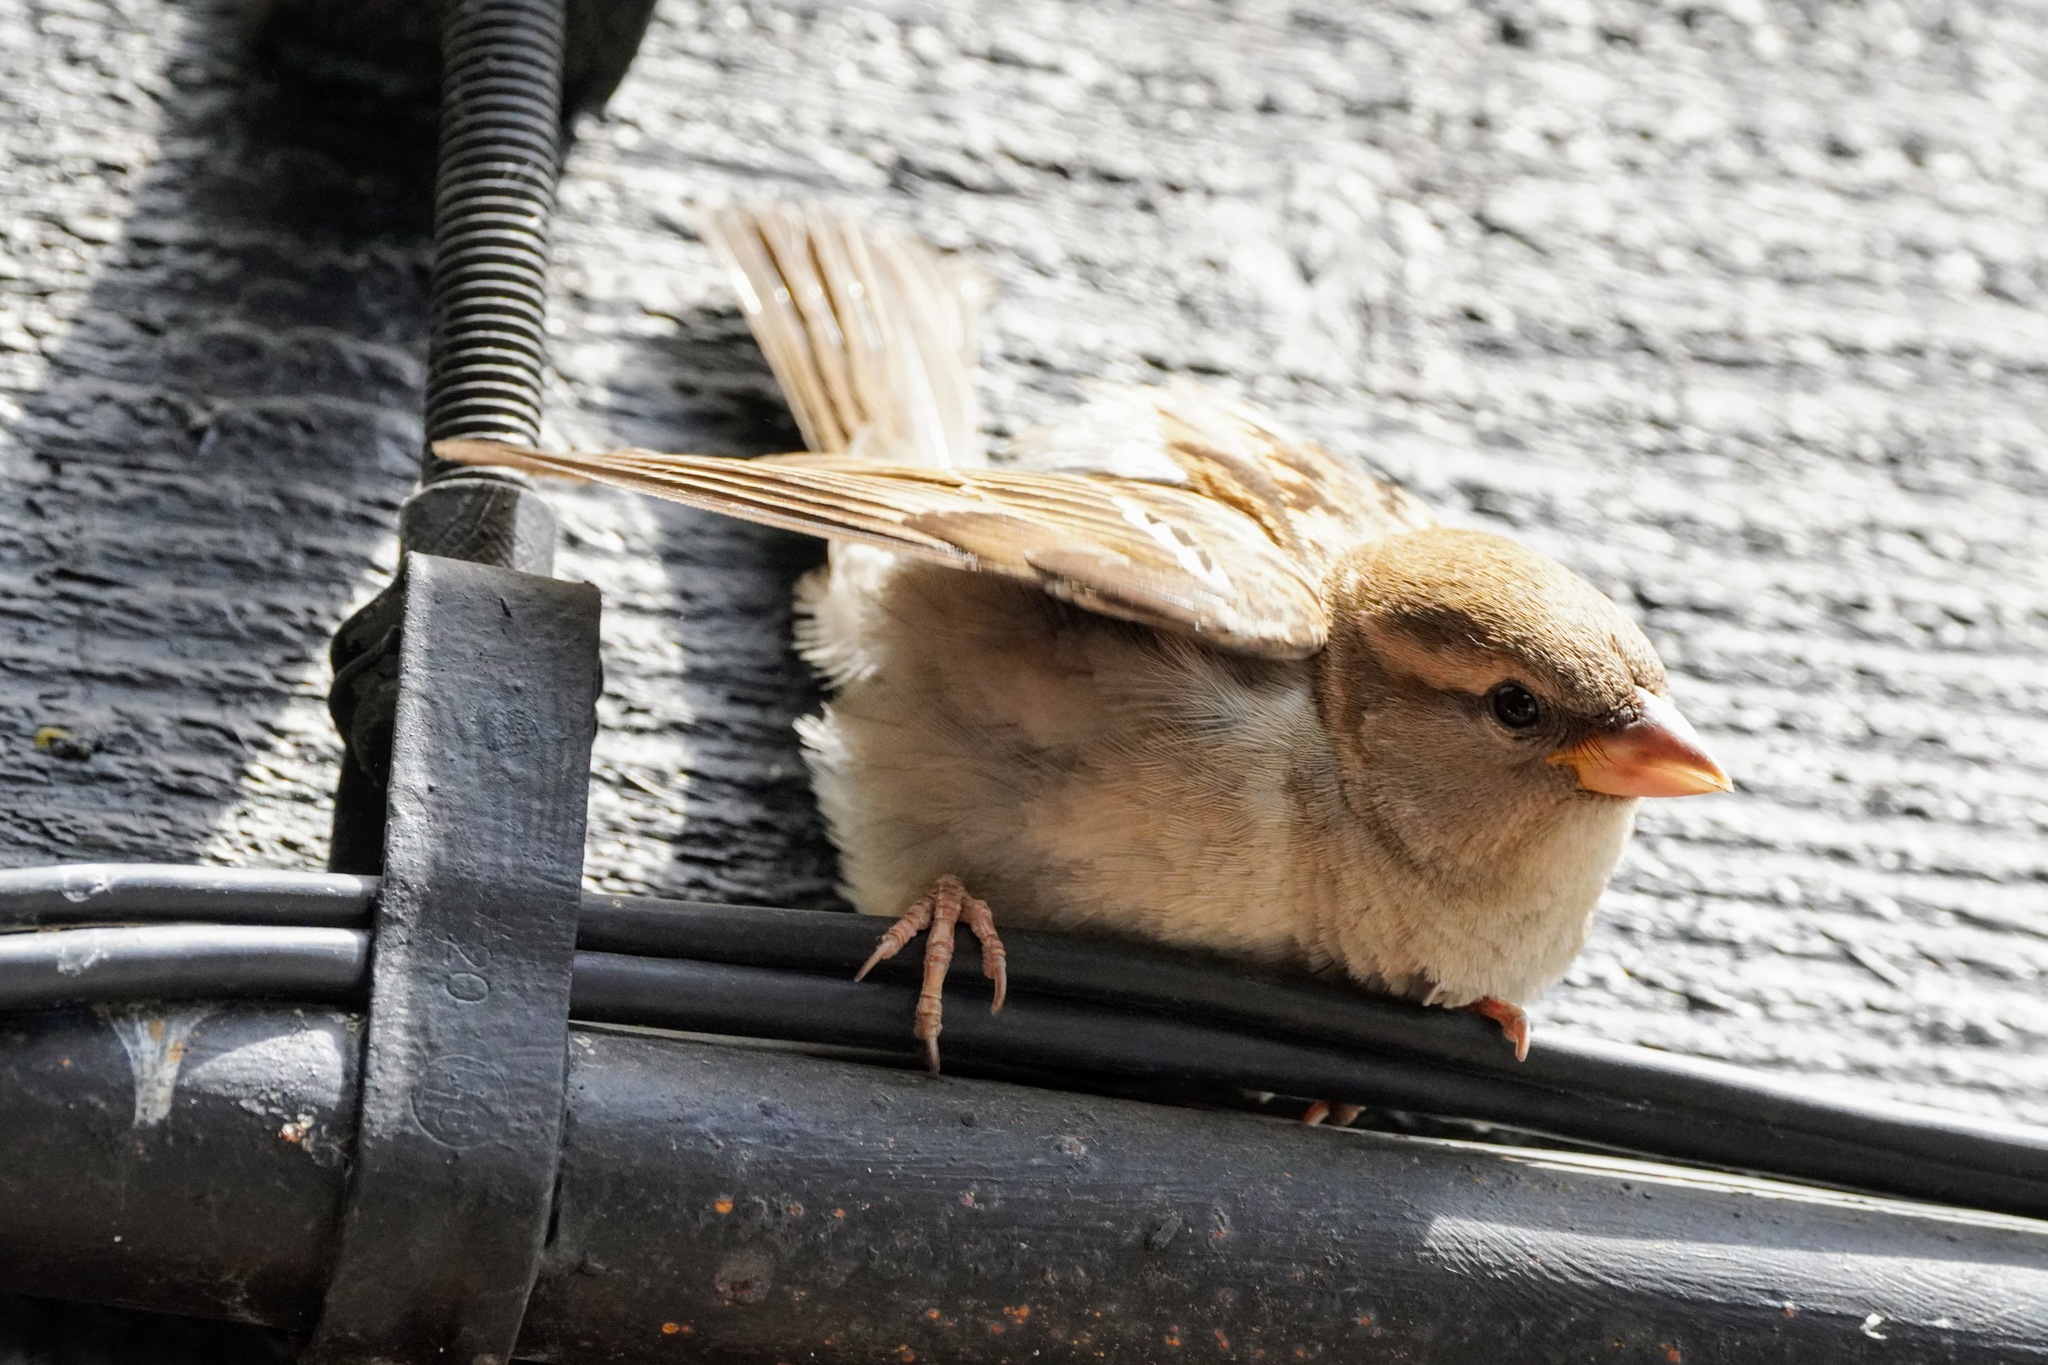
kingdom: Animalia
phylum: Chordata
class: Aves
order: Passeriformes
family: Passeridae
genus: Passer
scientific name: Passer domesticus
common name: House sparrow
